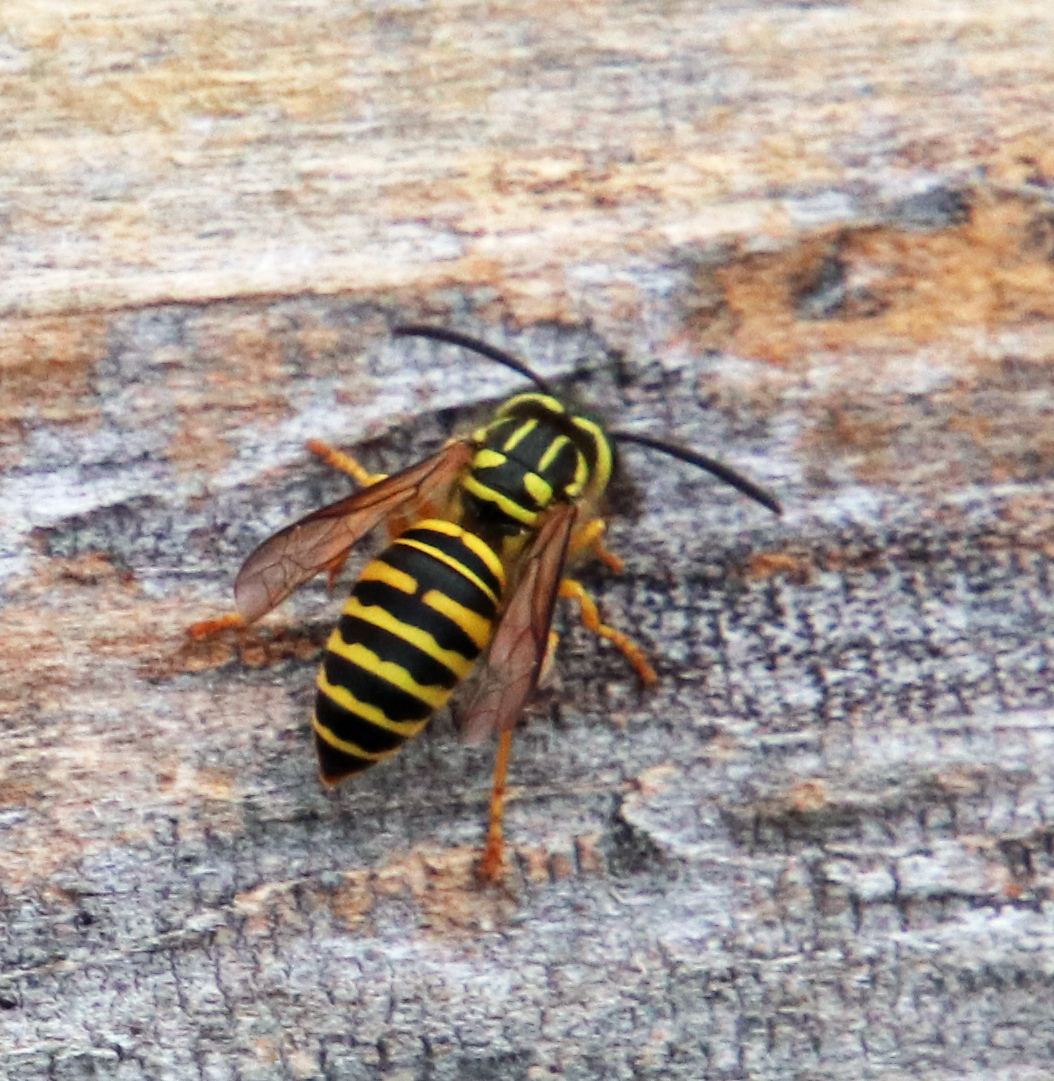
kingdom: Animalia
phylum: Arthropoda
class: Insecta
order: Hymenoptera
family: Vespidae
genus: Vespula
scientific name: Vespula squamosa
